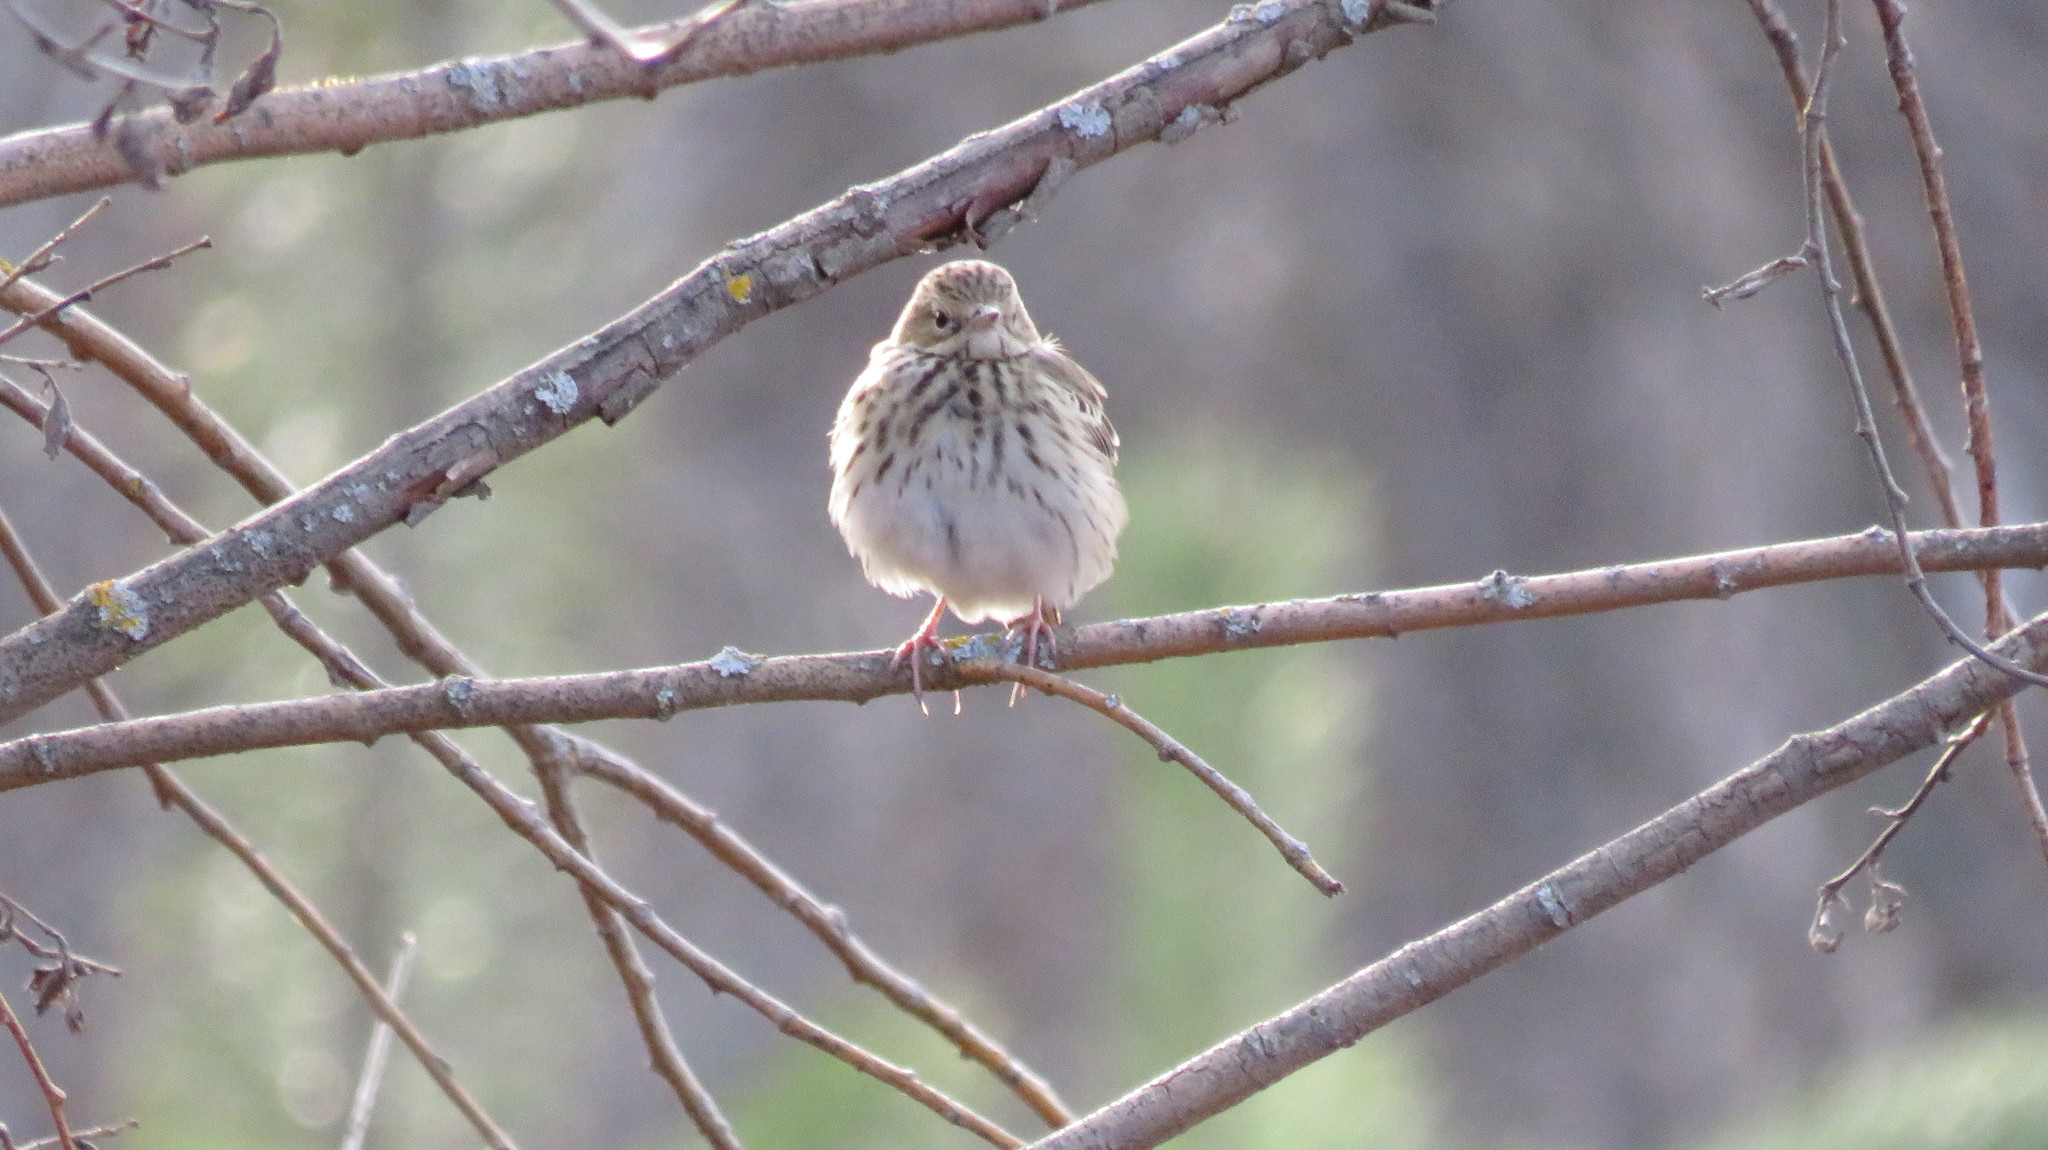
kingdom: Animalia
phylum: Chordata
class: Aves
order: Passeriformes
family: Motacillidae
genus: Anthus
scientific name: Anthus trivialis
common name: Tree pipit
